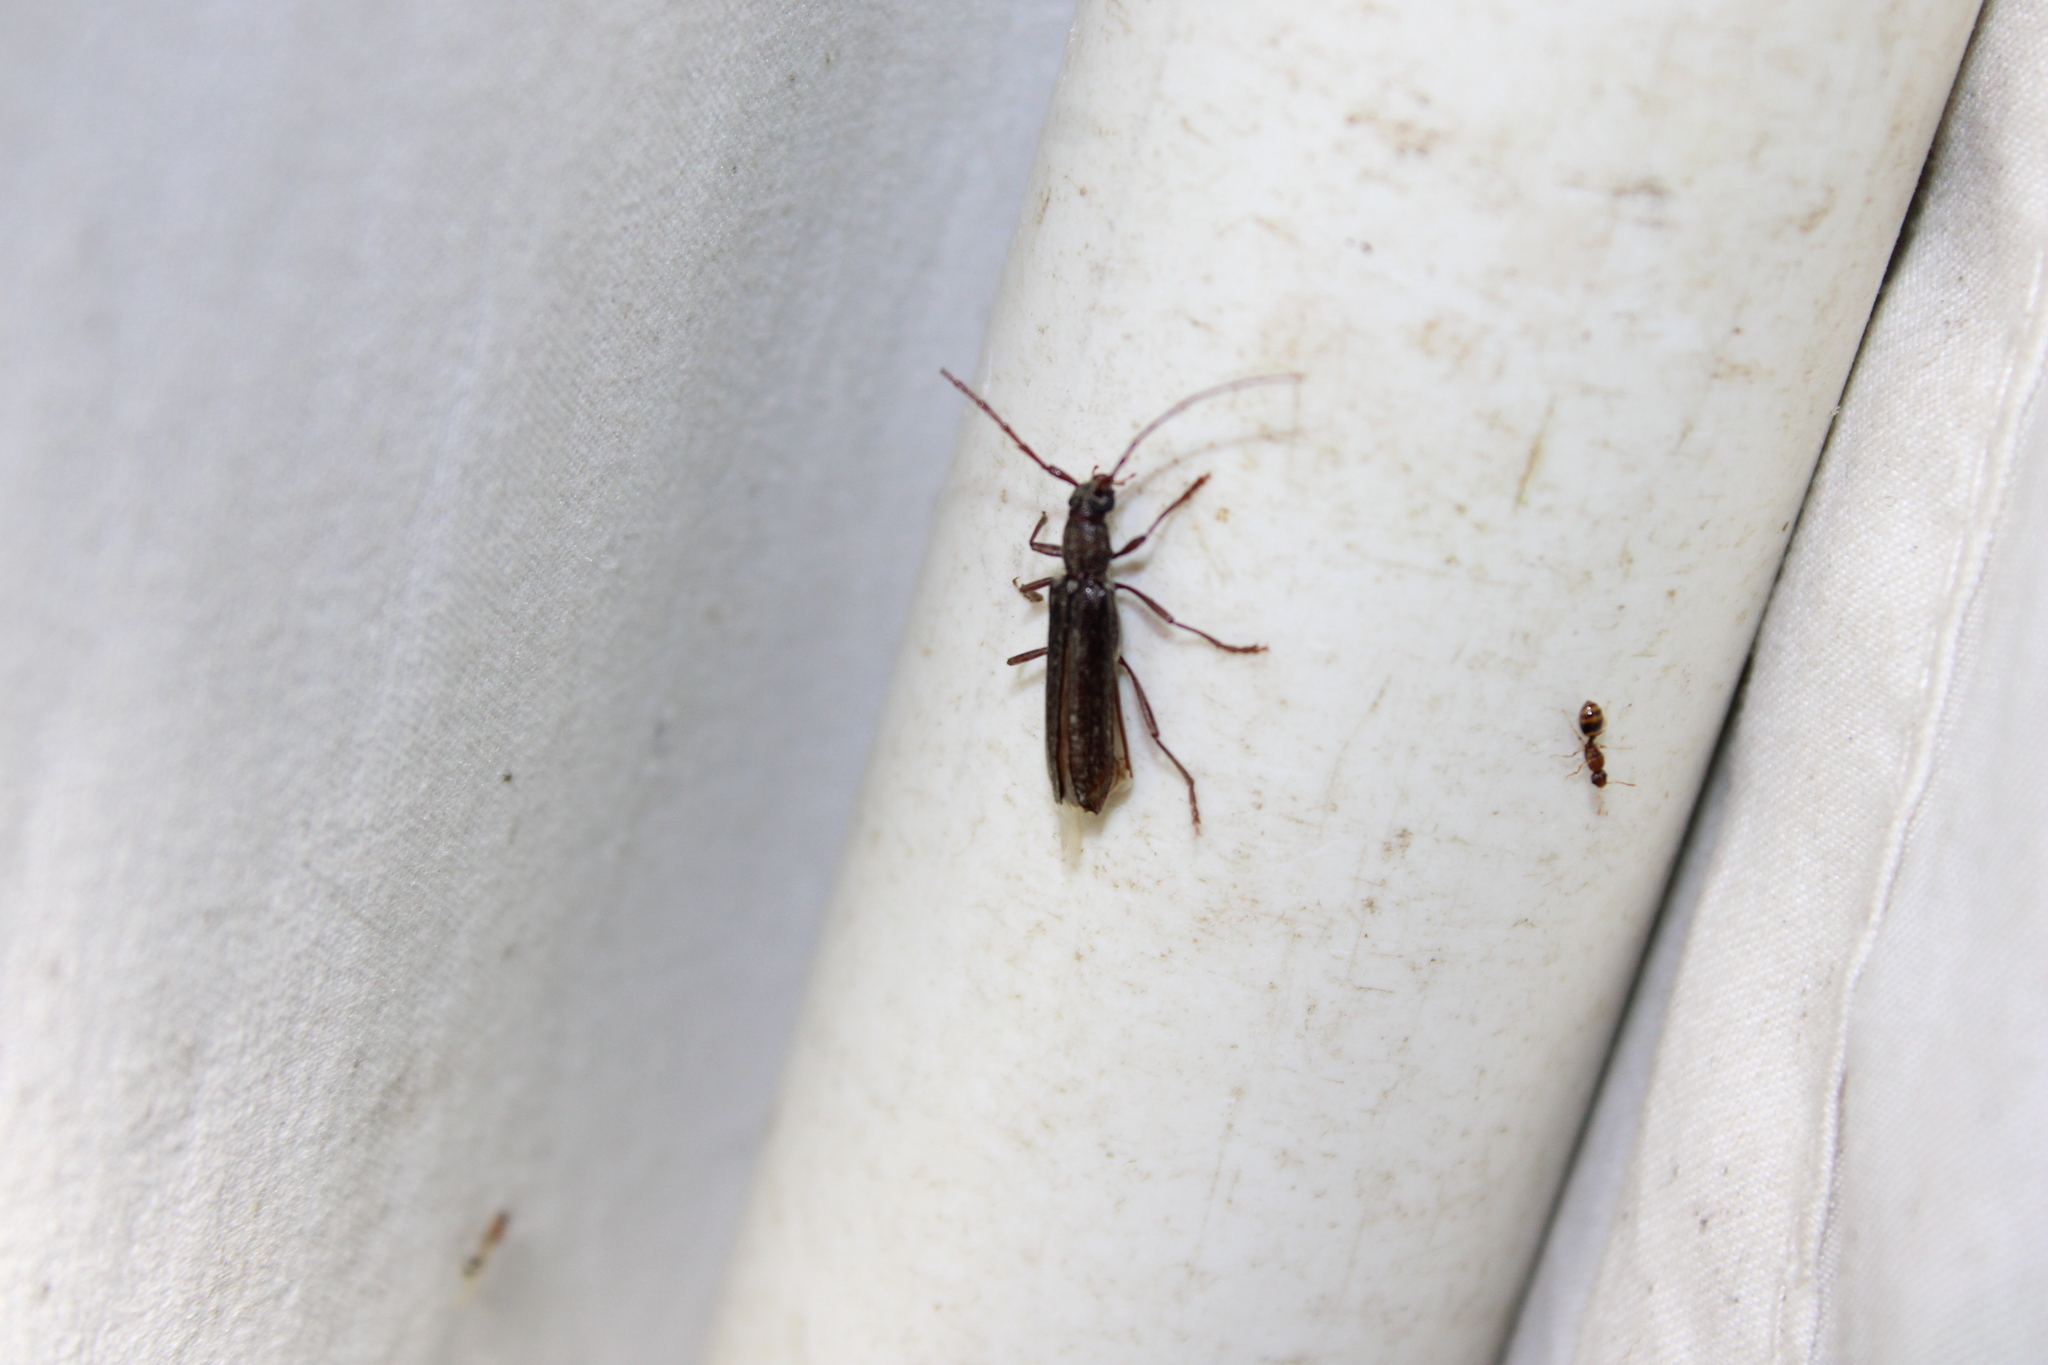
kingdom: Animalia
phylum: Arthropoda
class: Insecta
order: Coleoptera
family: Cerambycidae
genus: Anelaphus
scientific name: Anelaphus villosus
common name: Twig pruner
